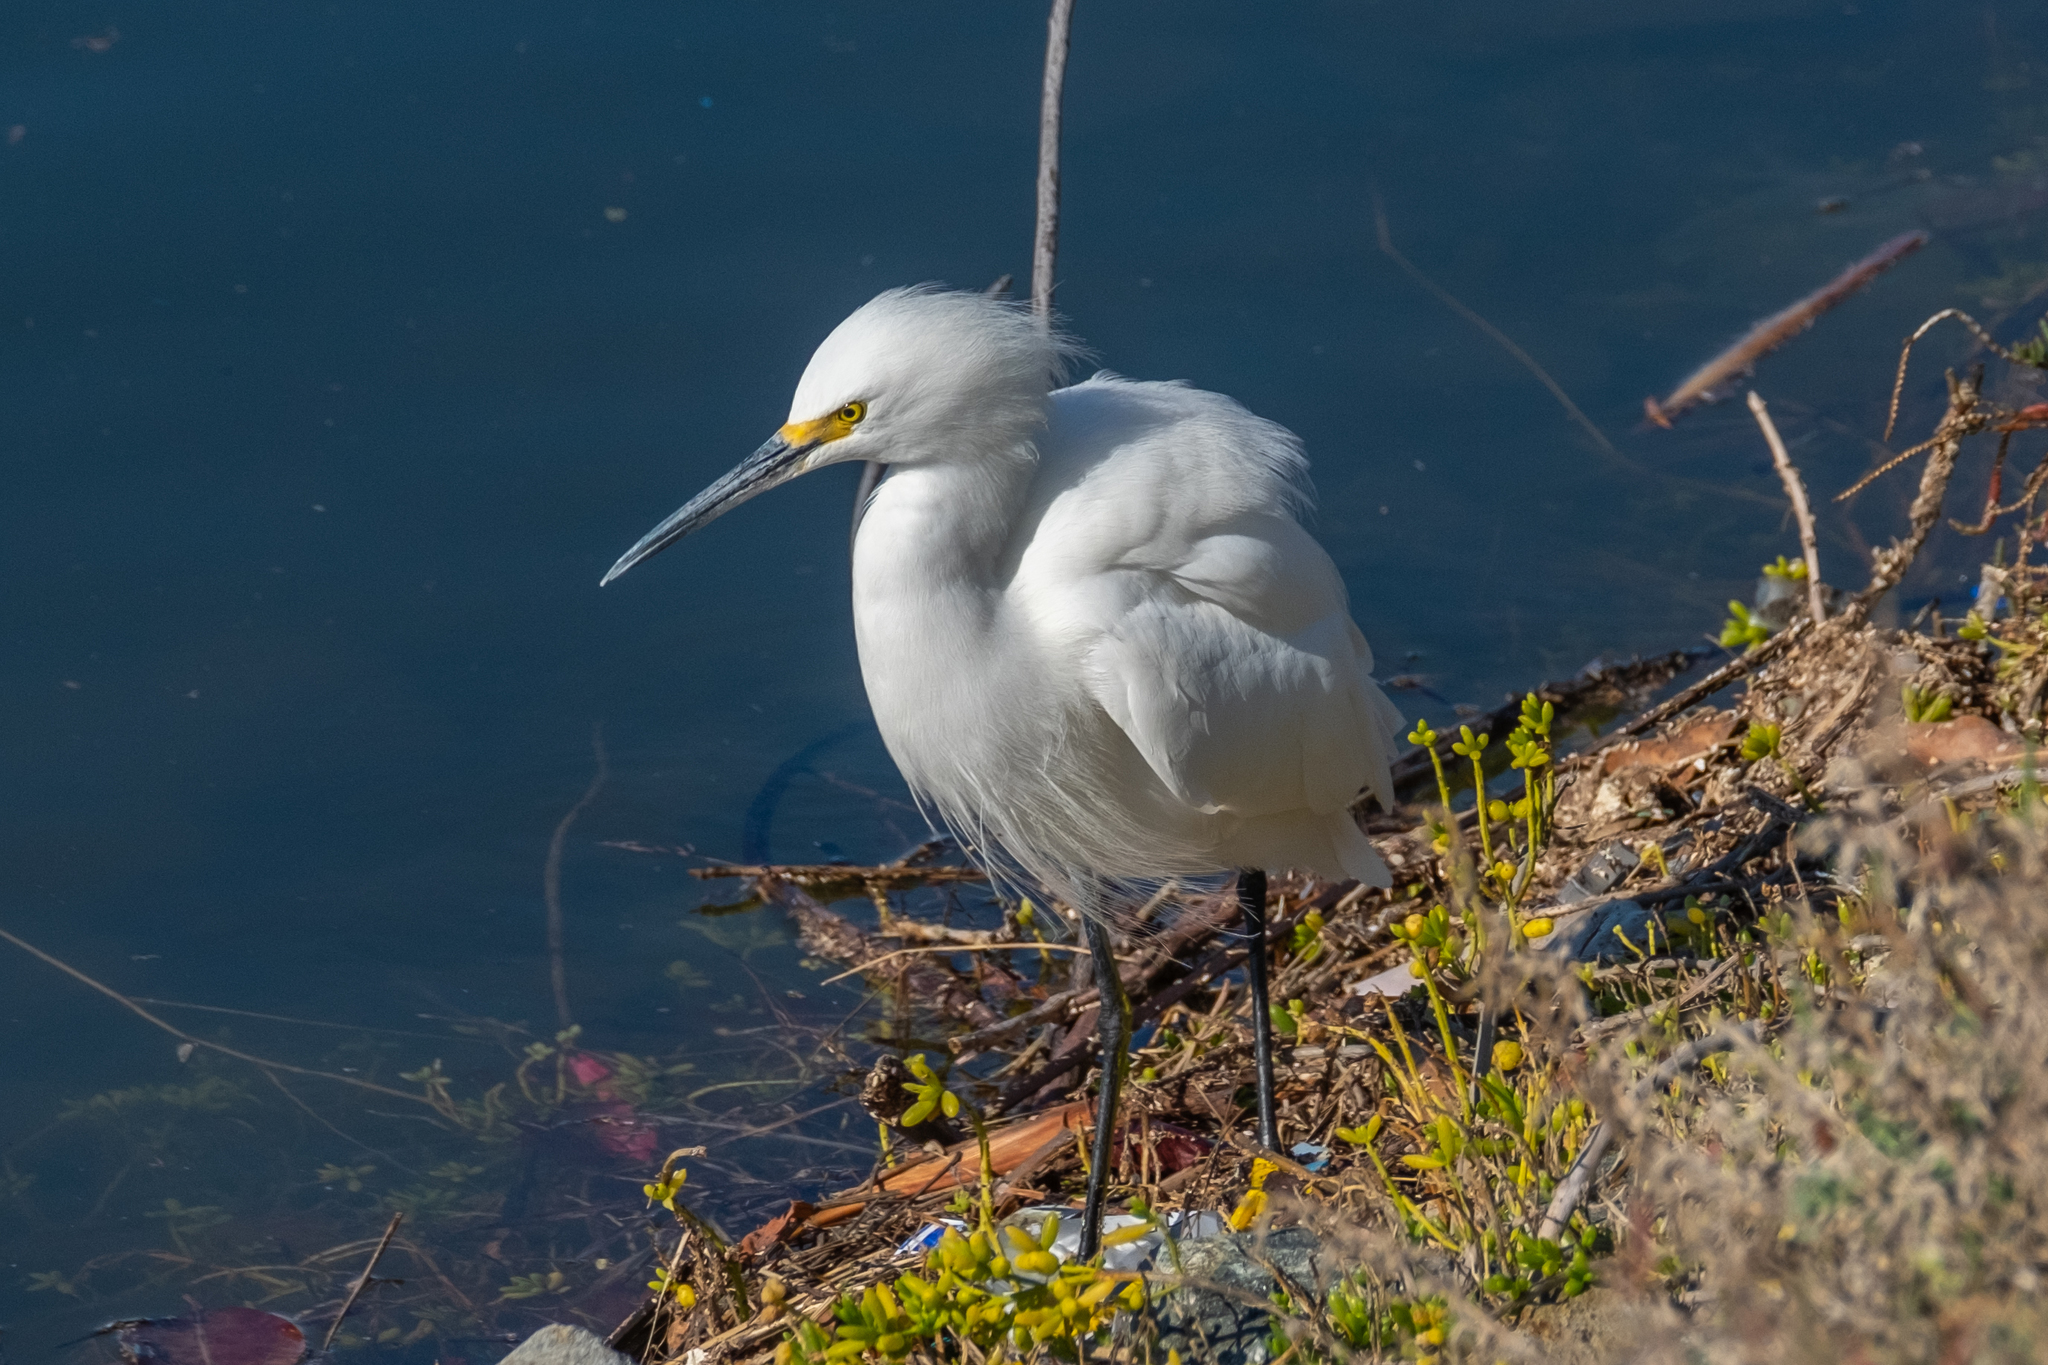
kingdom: Animalia
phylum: Chordata
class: Aves
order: Pelecaniformes
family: Ardeidae
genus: Egretta
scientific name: Egretta thula
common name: Snowy egret
